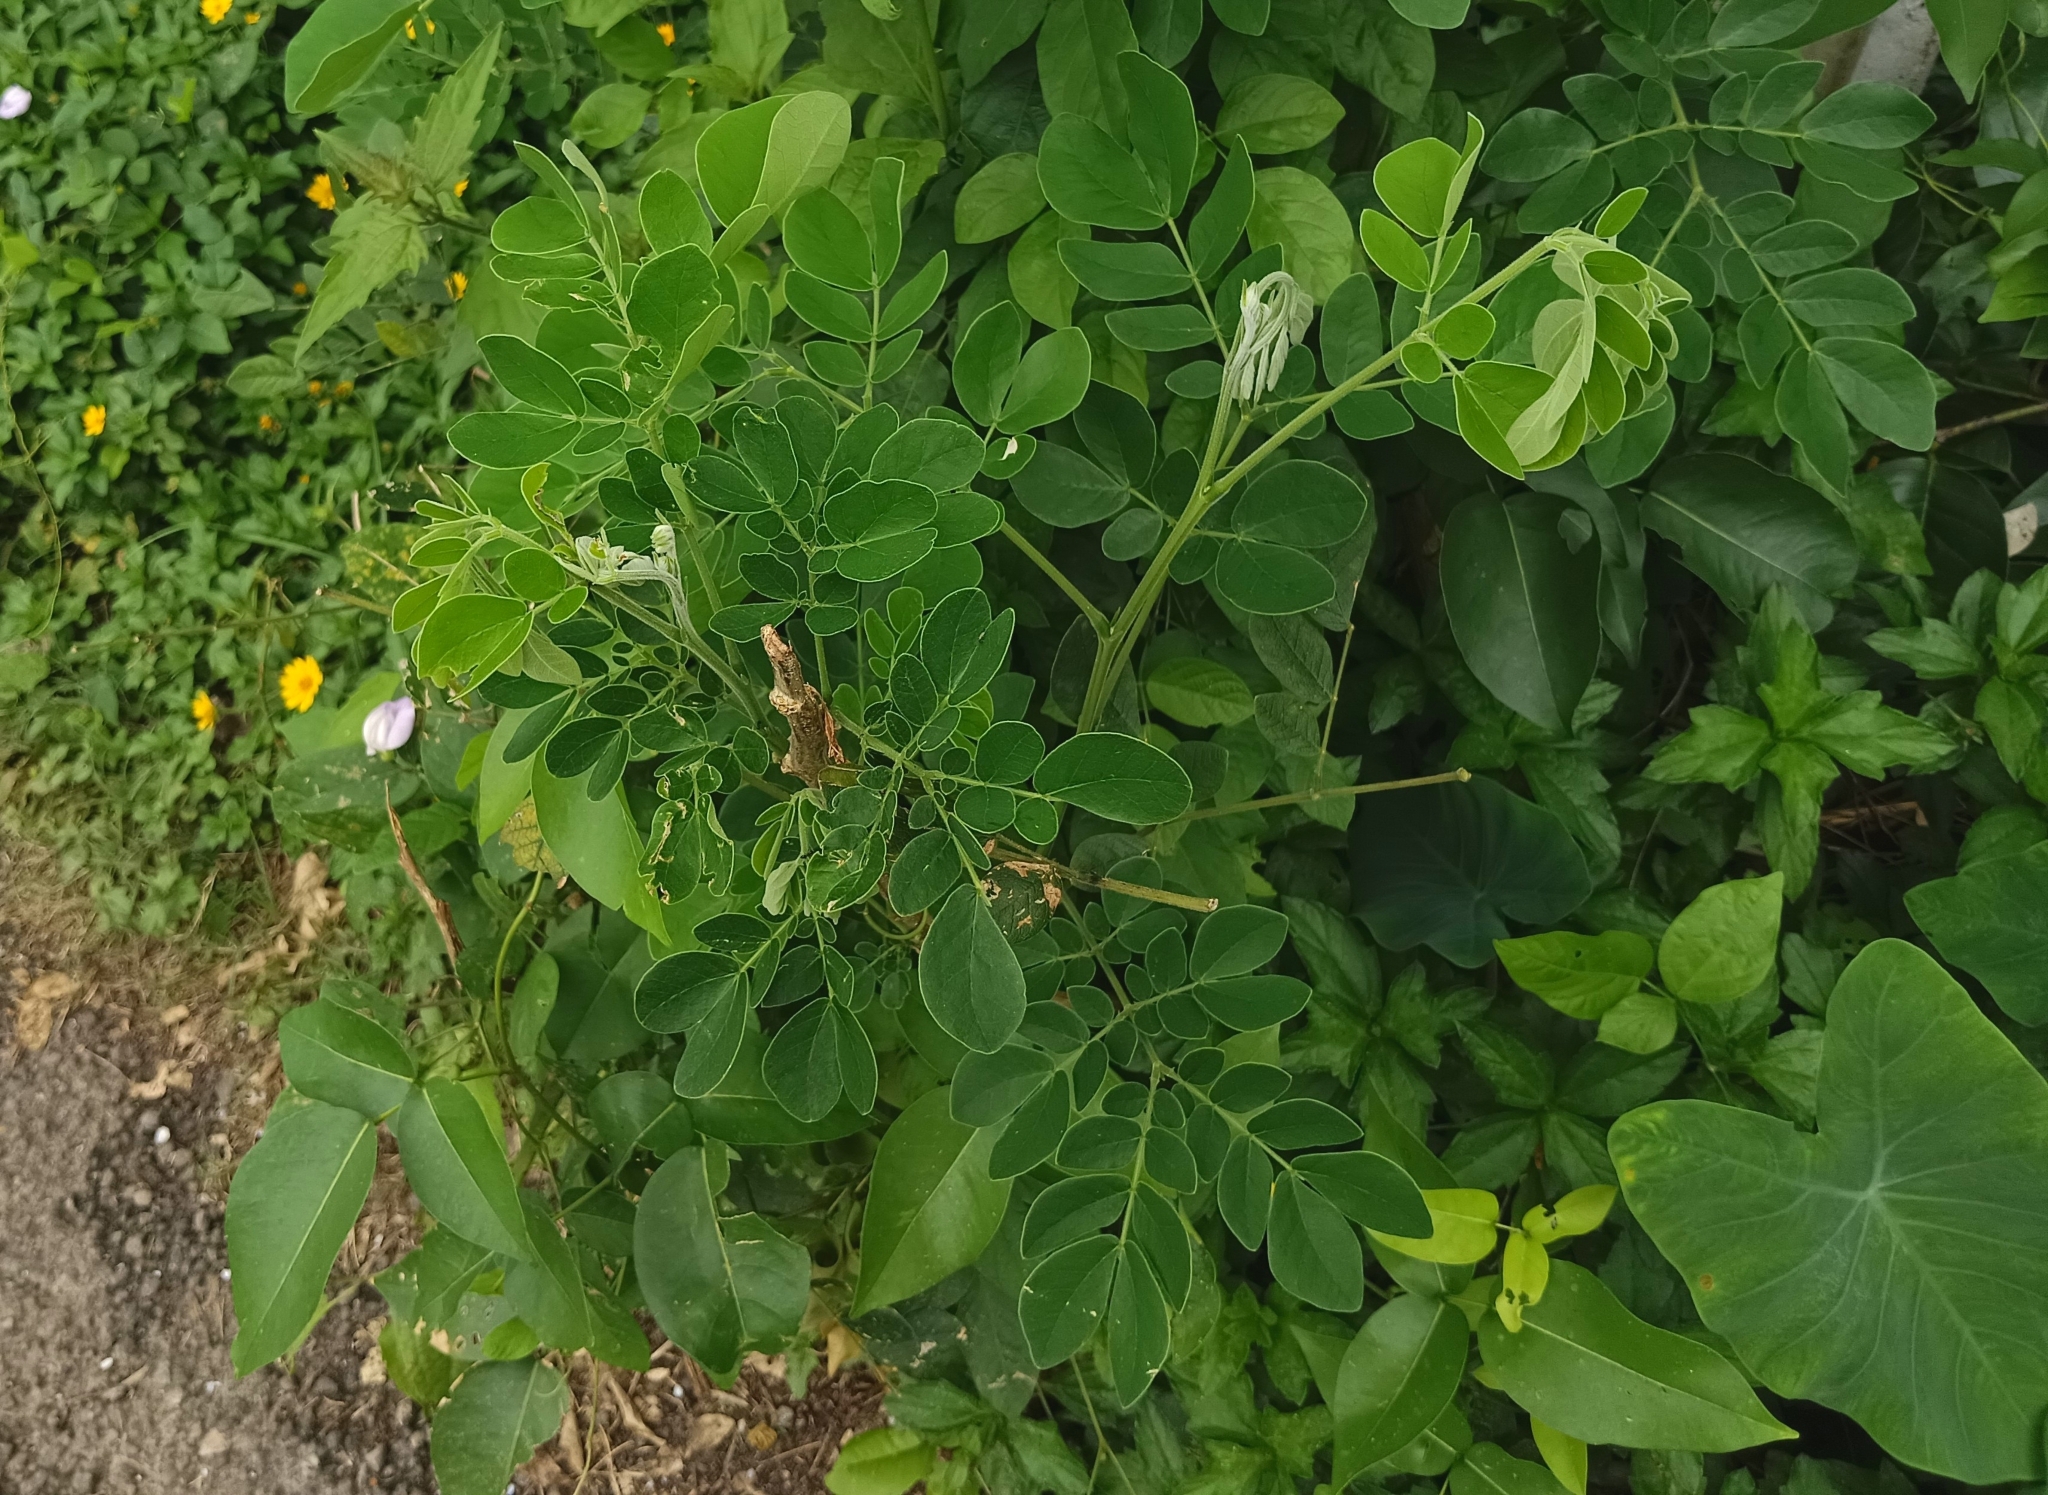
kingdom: Plantae
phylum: Tracheophyta
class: Magnoliopsida
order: Fabales
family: Fabaceae
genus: Samanea
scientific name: Samanea saman
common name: Raintree
